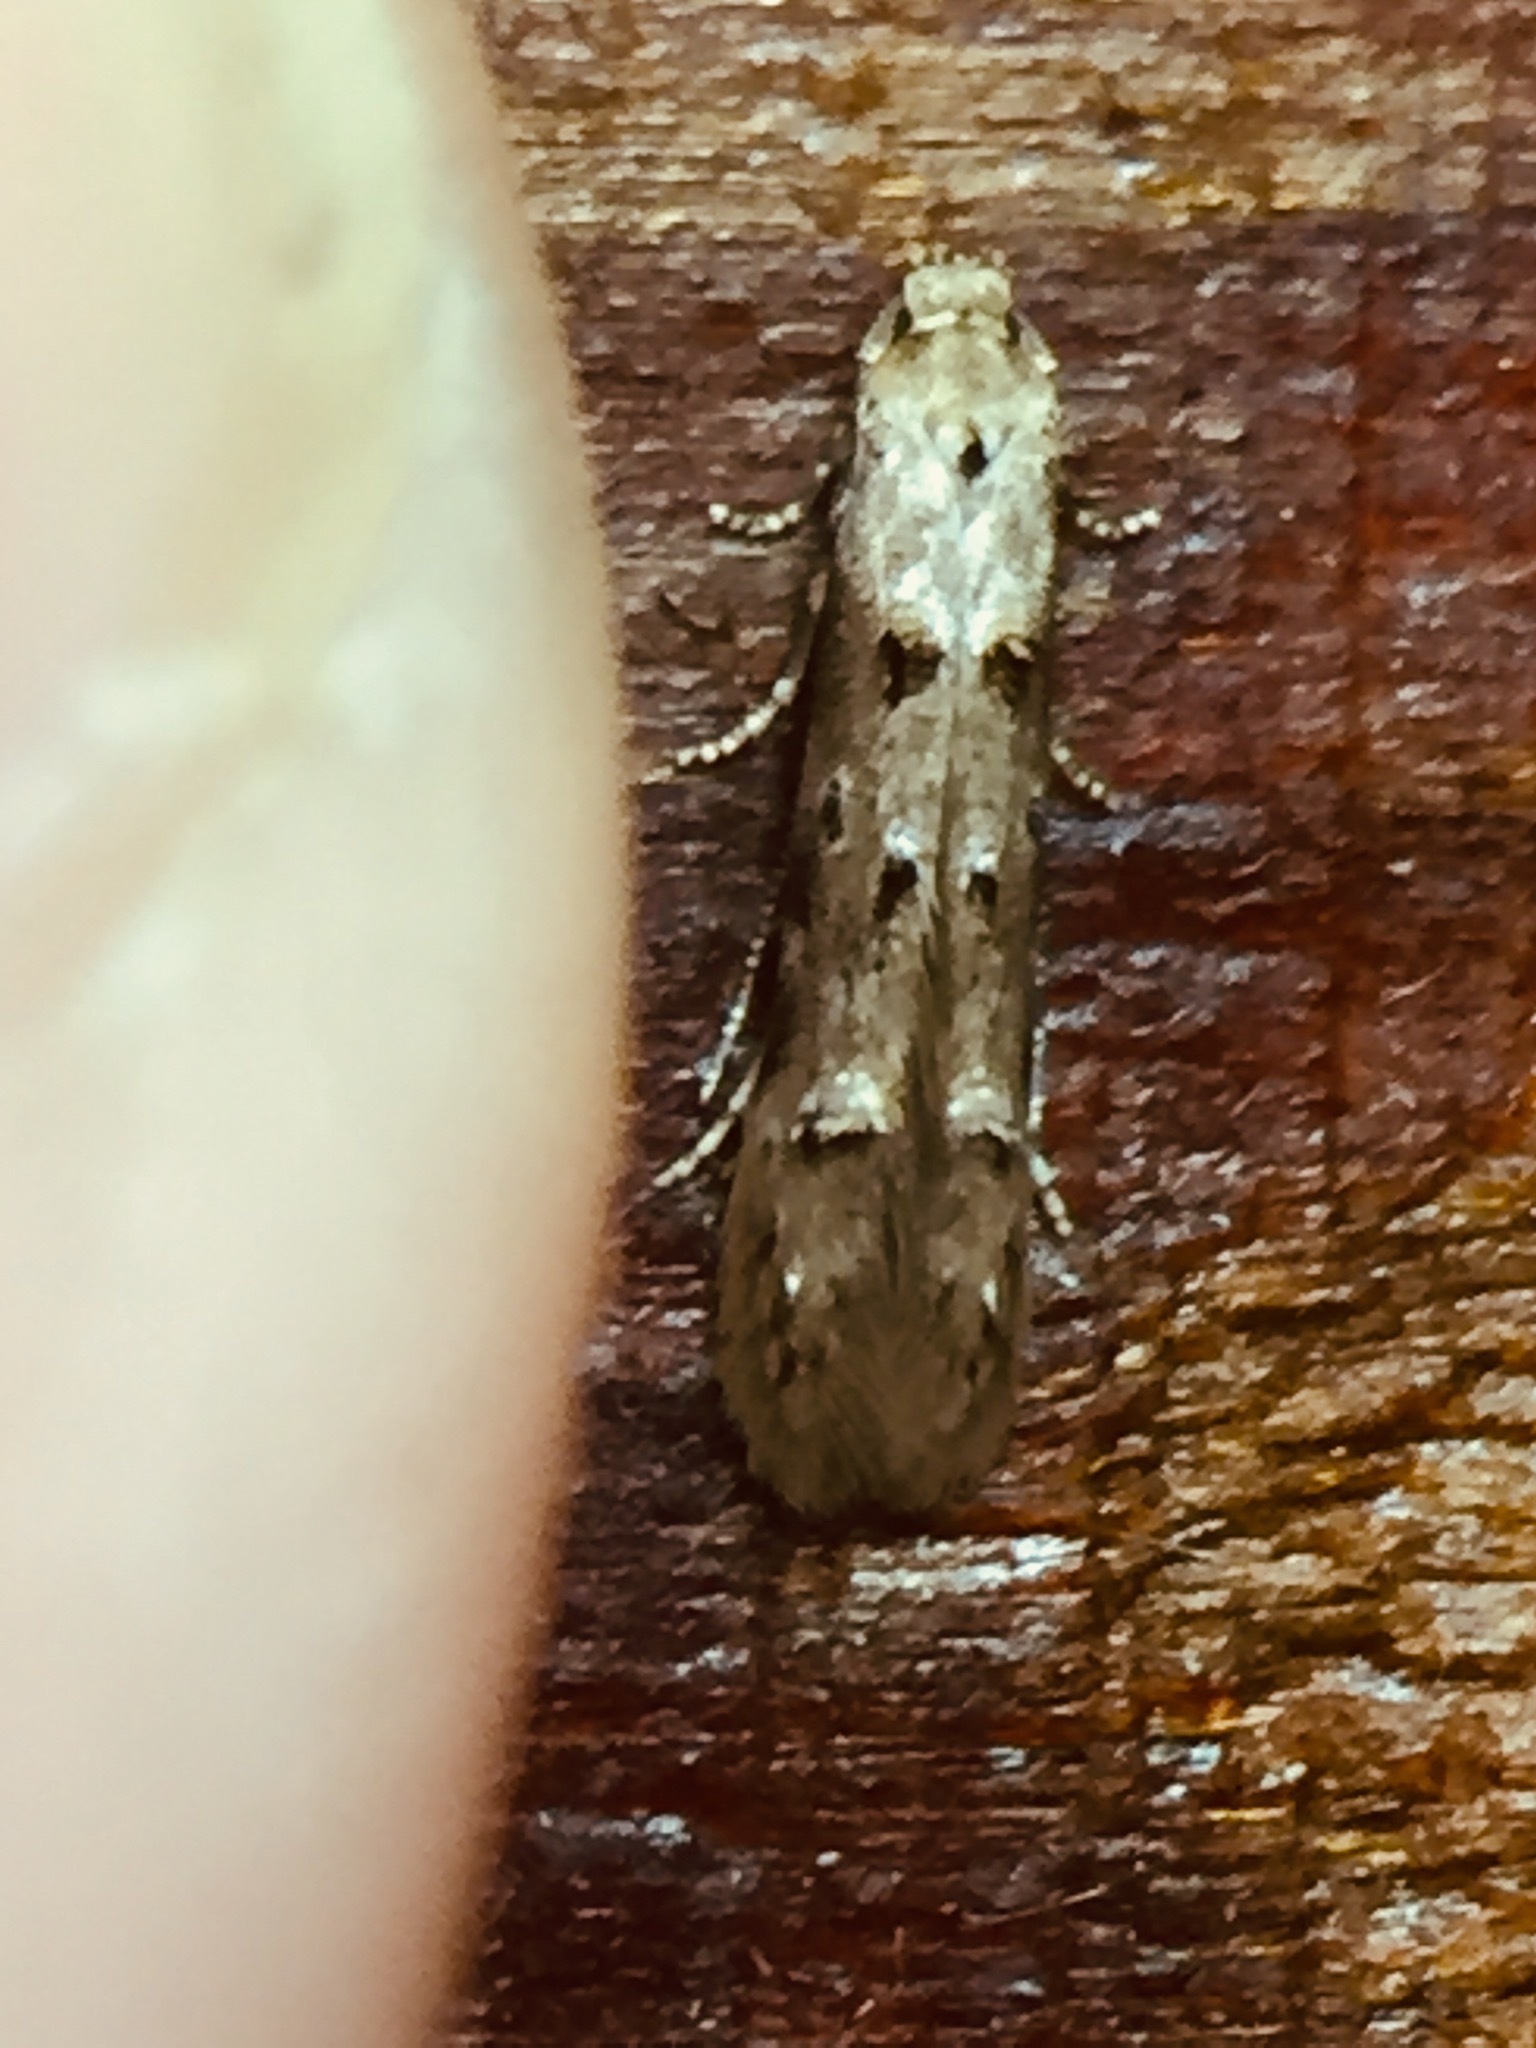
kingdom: Animalia
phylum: Arthropoda
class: Insecta
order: Lepidoptera
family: Elachistidae
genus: Microcolona
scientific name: Microcolona limodes
